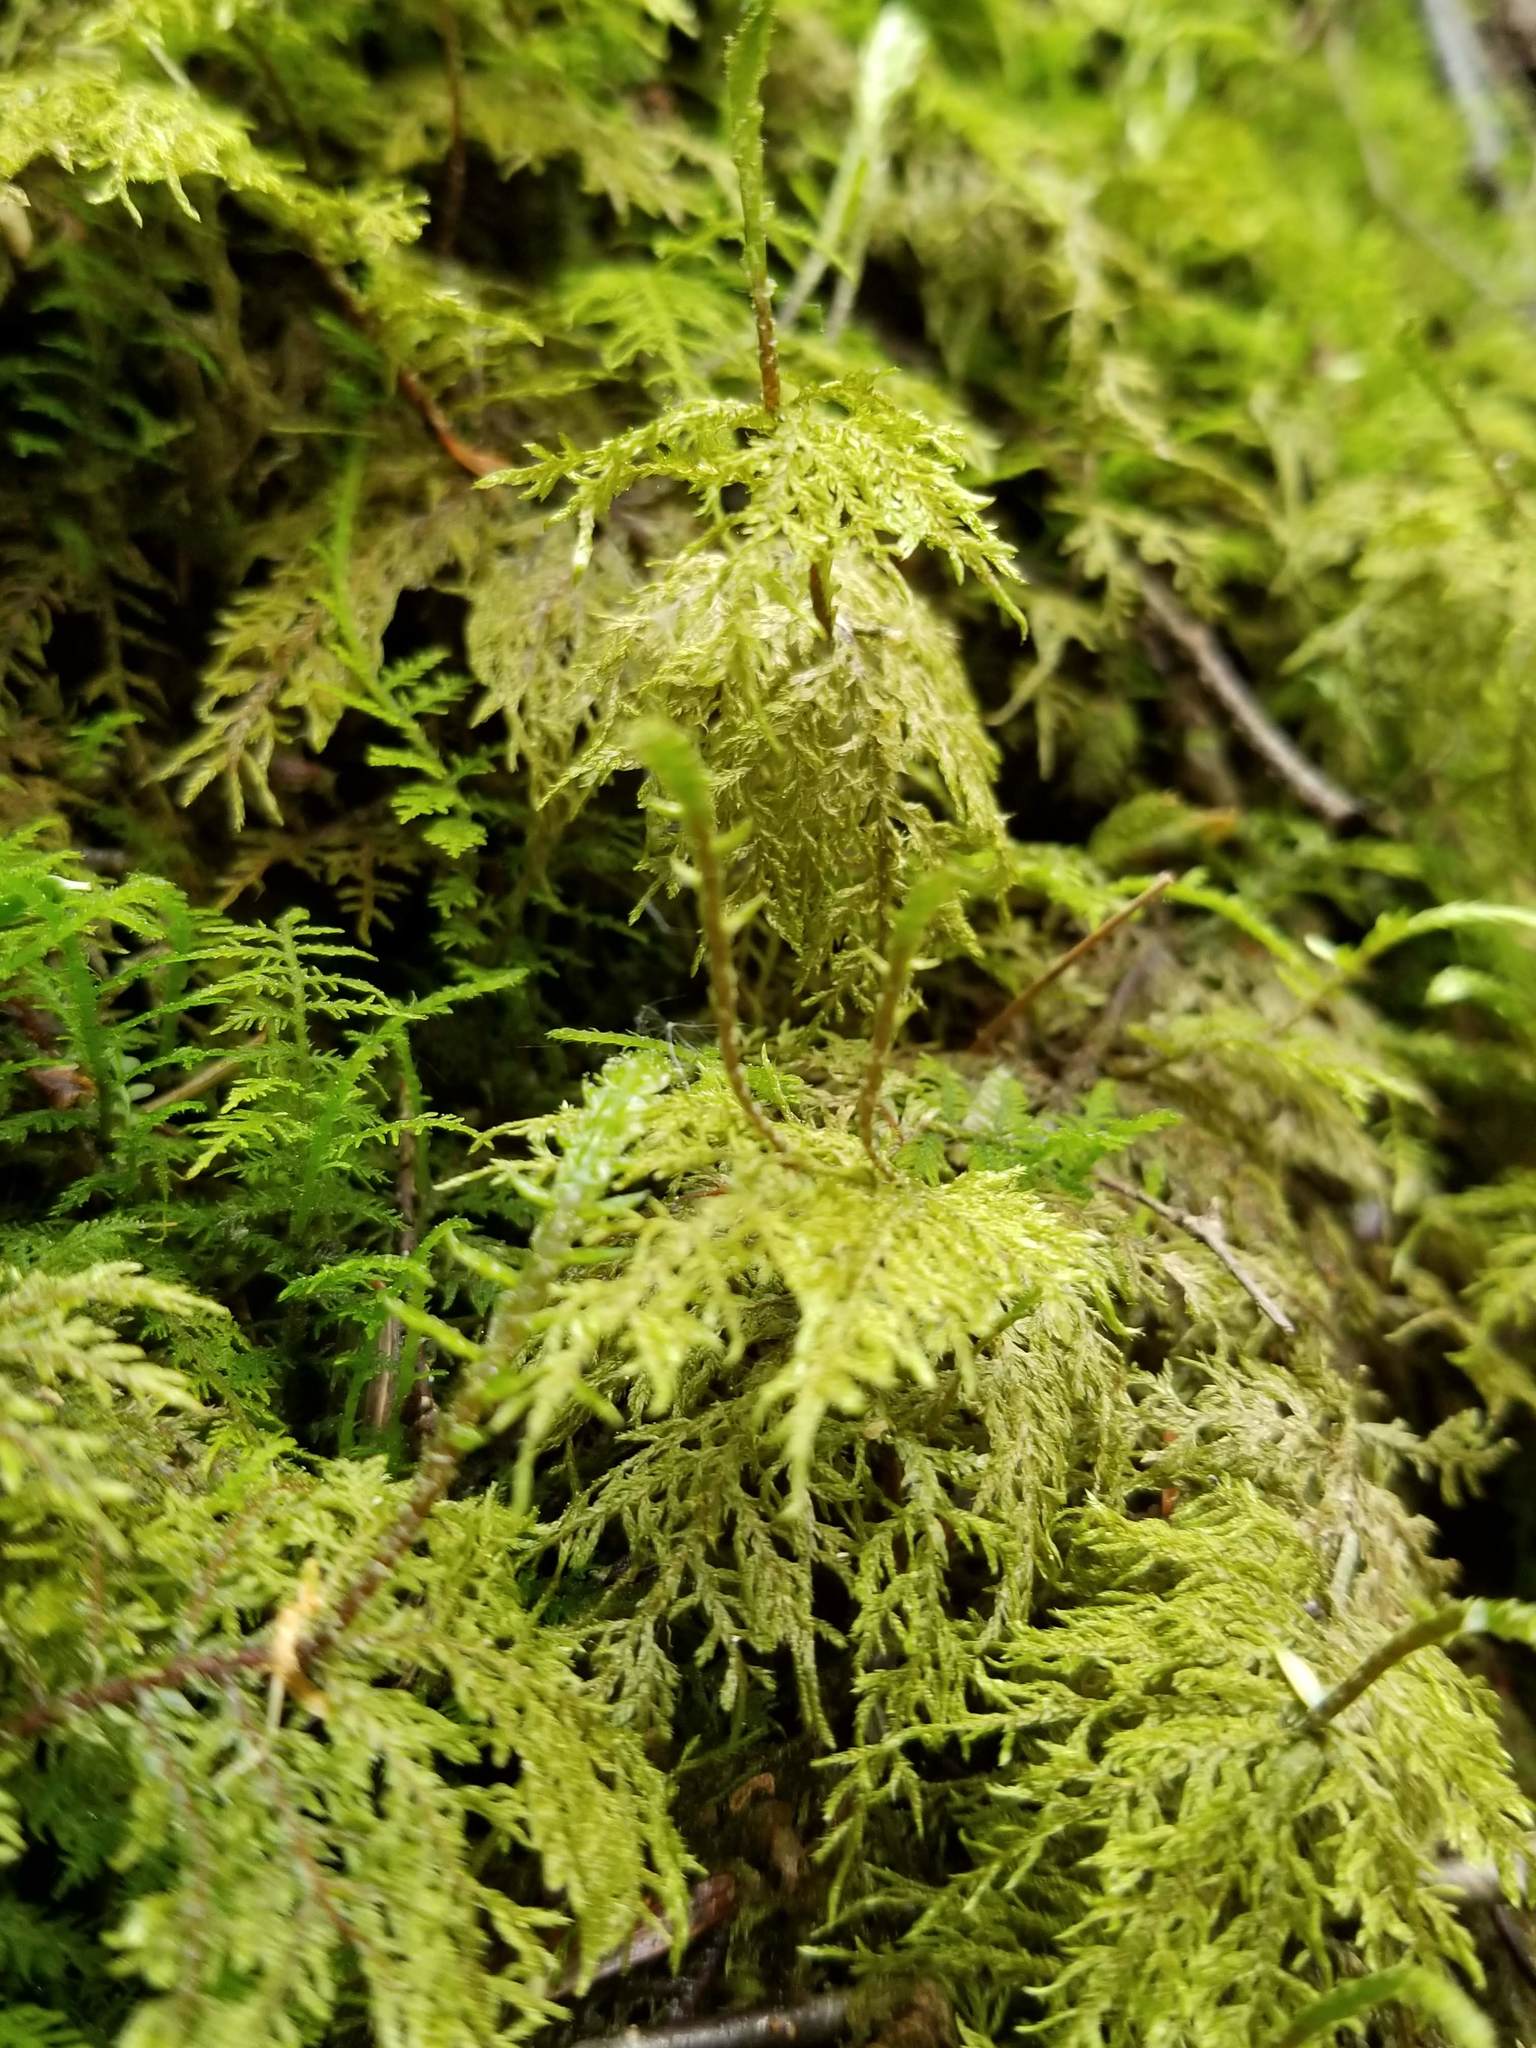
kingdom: Plantae
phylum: Bryophyta
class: Bryopsida
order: Hypnales
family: Hylocomiaceae
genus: Hylocomium
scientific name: Hylocomium splendens
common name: Stairstep moss
